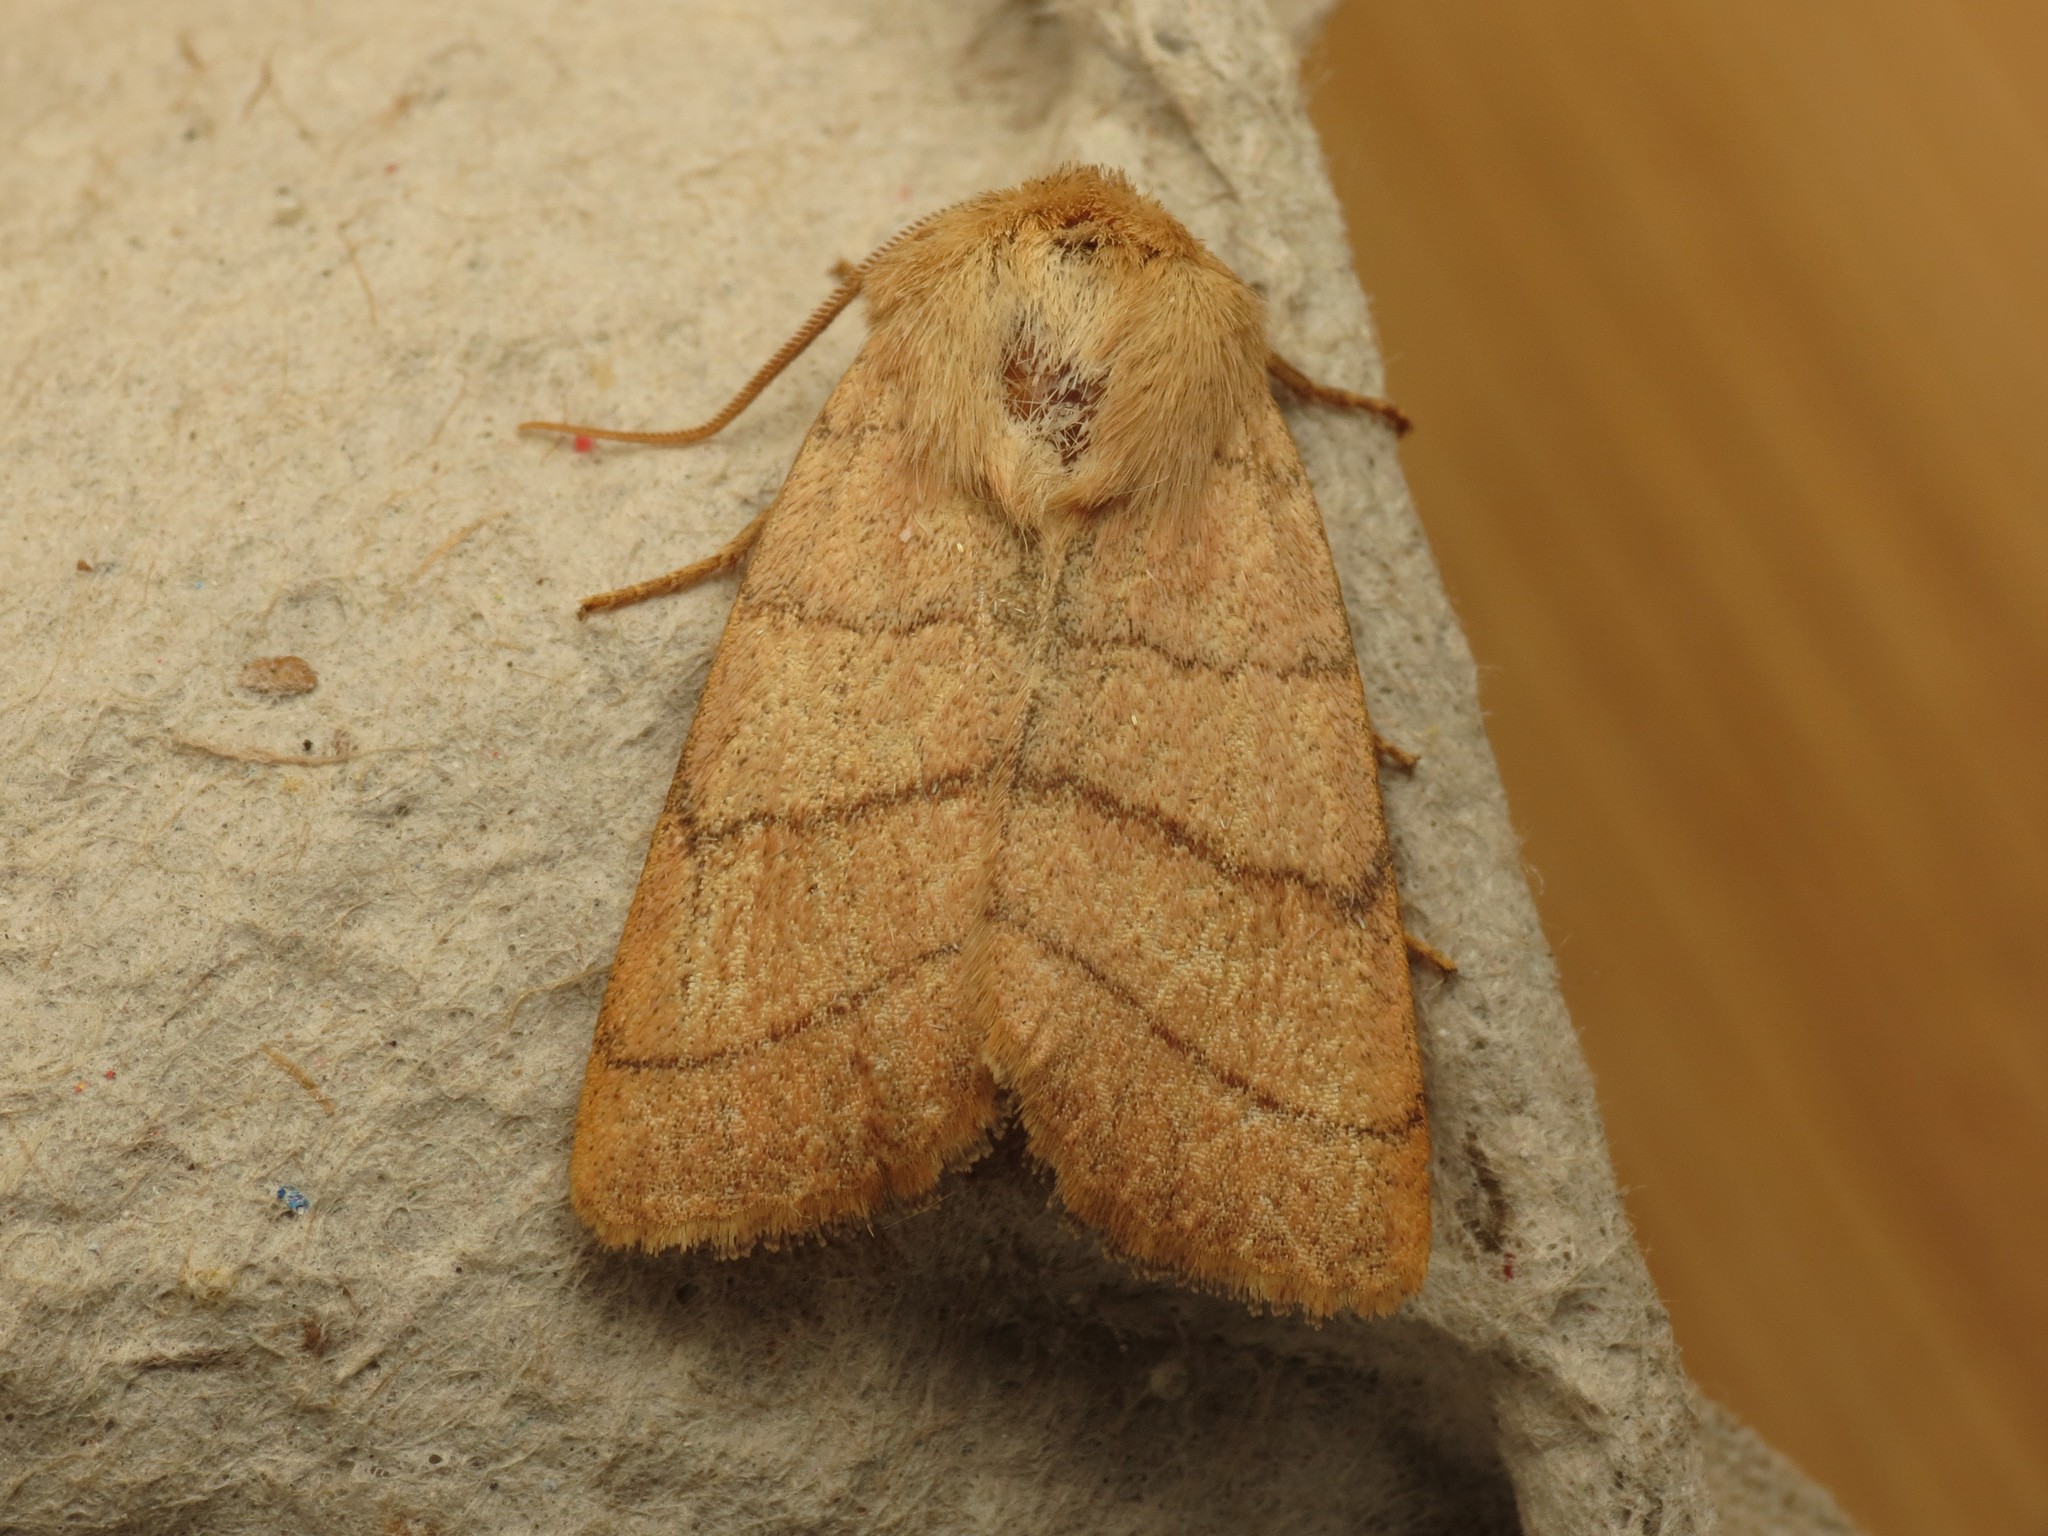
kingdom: Animalia
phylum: Arthropoda
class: Insecta
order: Lepidoptera
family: Noctuidae
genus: Charanyca
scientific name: Charanyca trigrammica
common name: Treble lines
